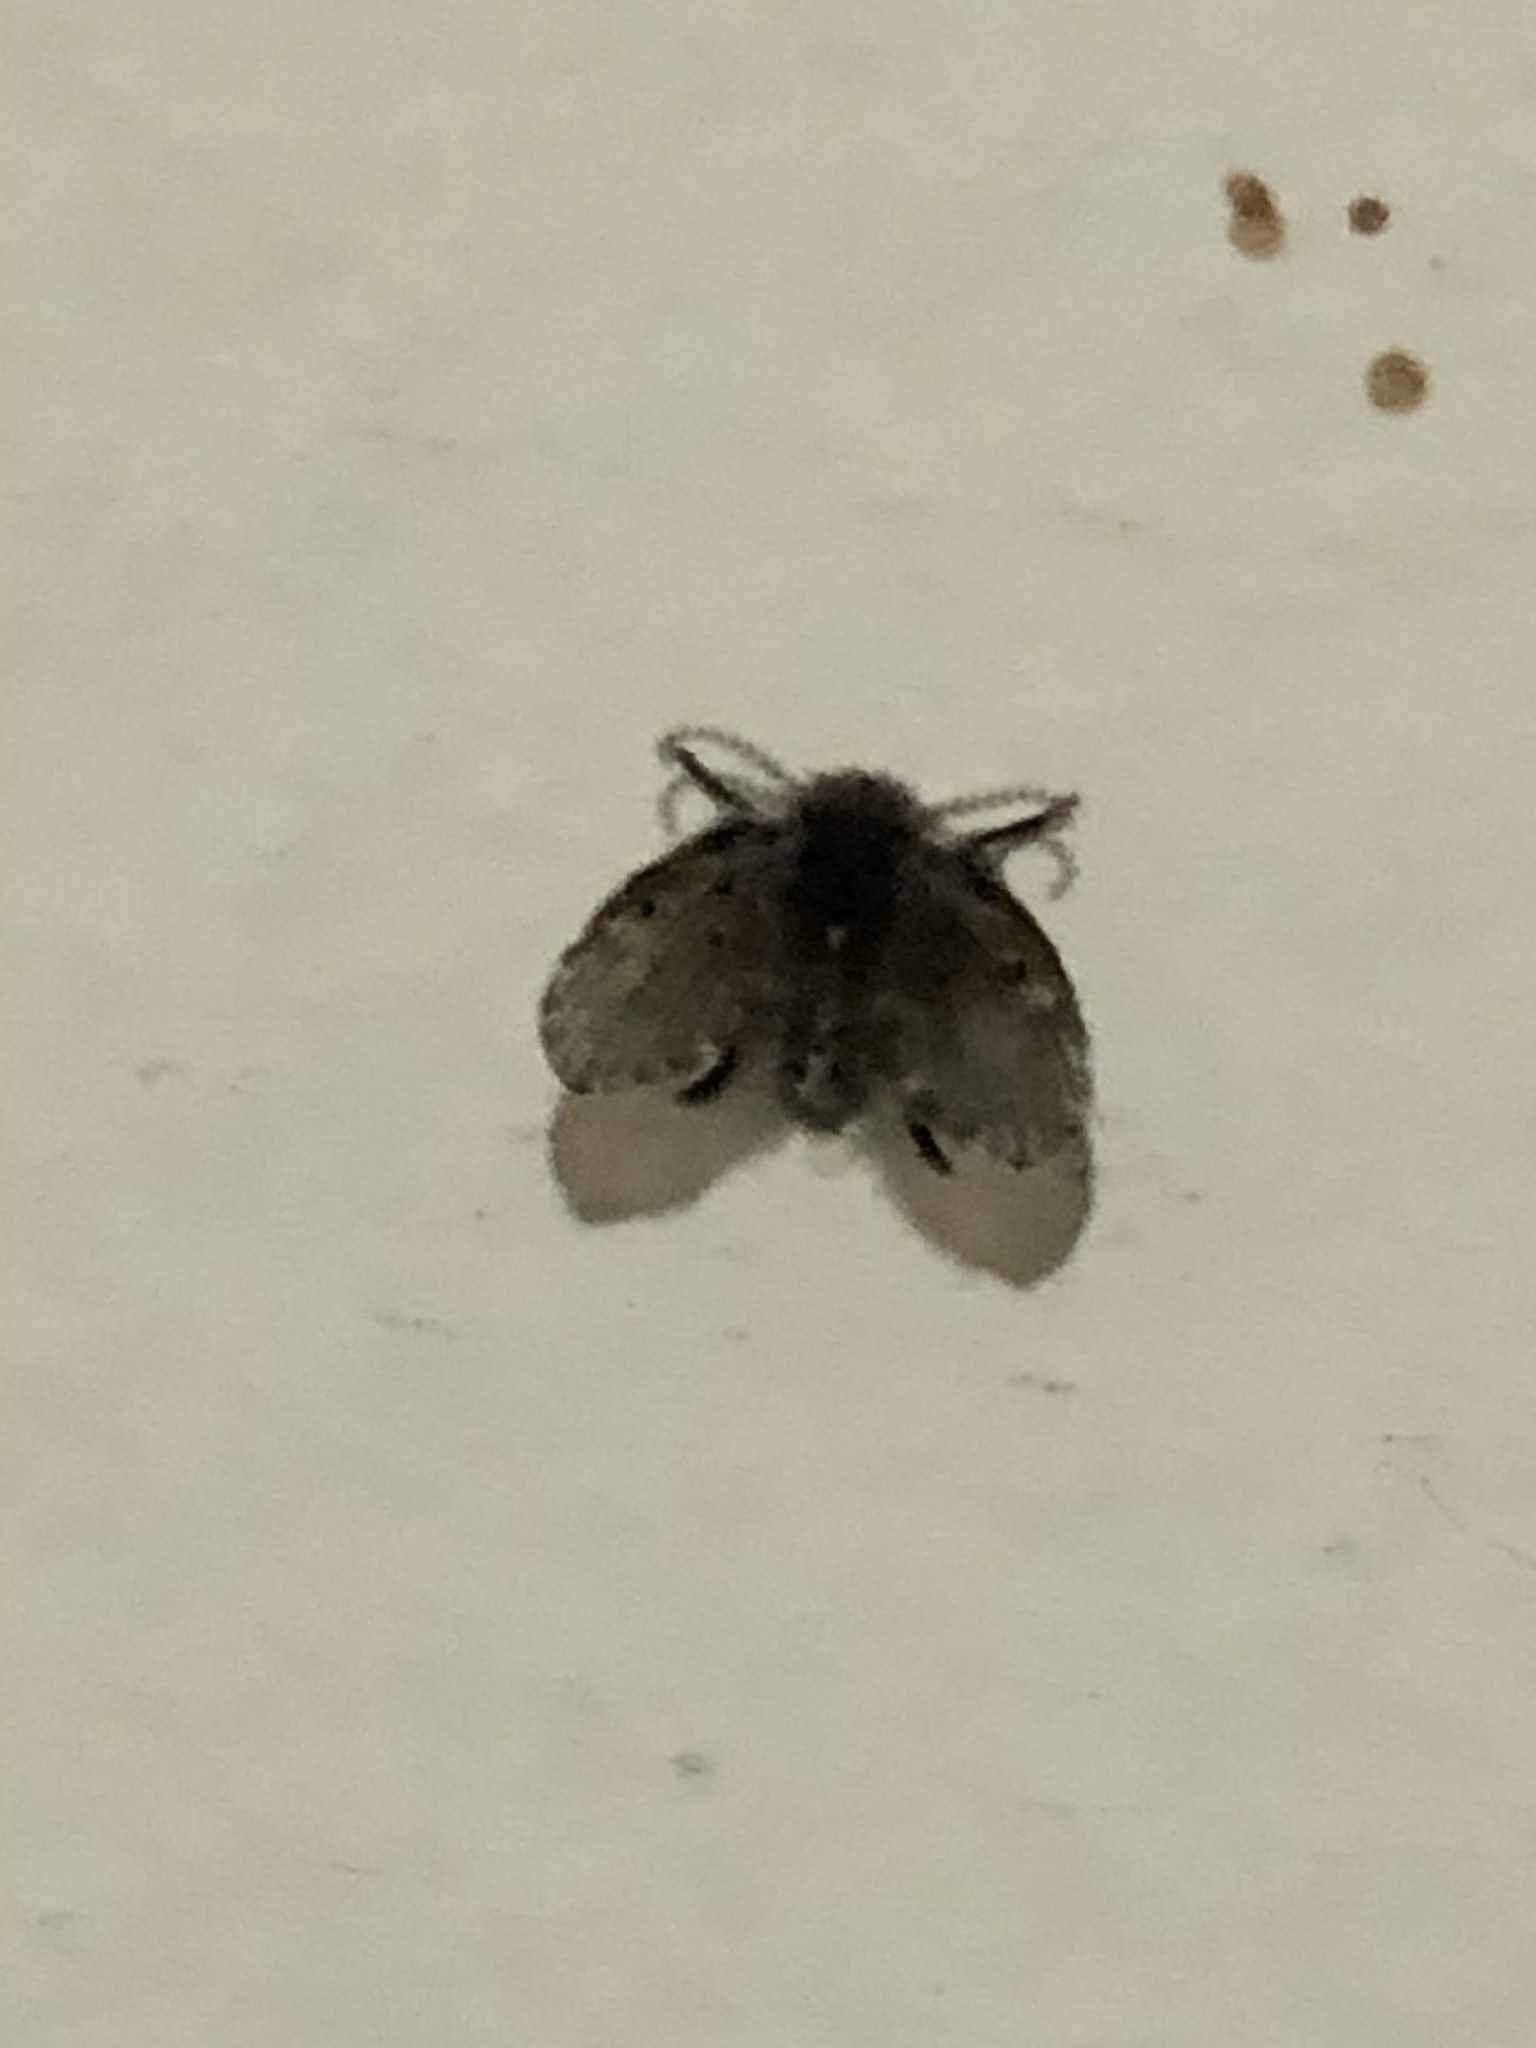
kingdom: Animalia
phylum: Arthropoda
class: Insecta
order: Diptera
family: Psychodidae
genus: Clogmia
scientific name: Clogmia albipunctatus
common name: White-spotted moth fly
